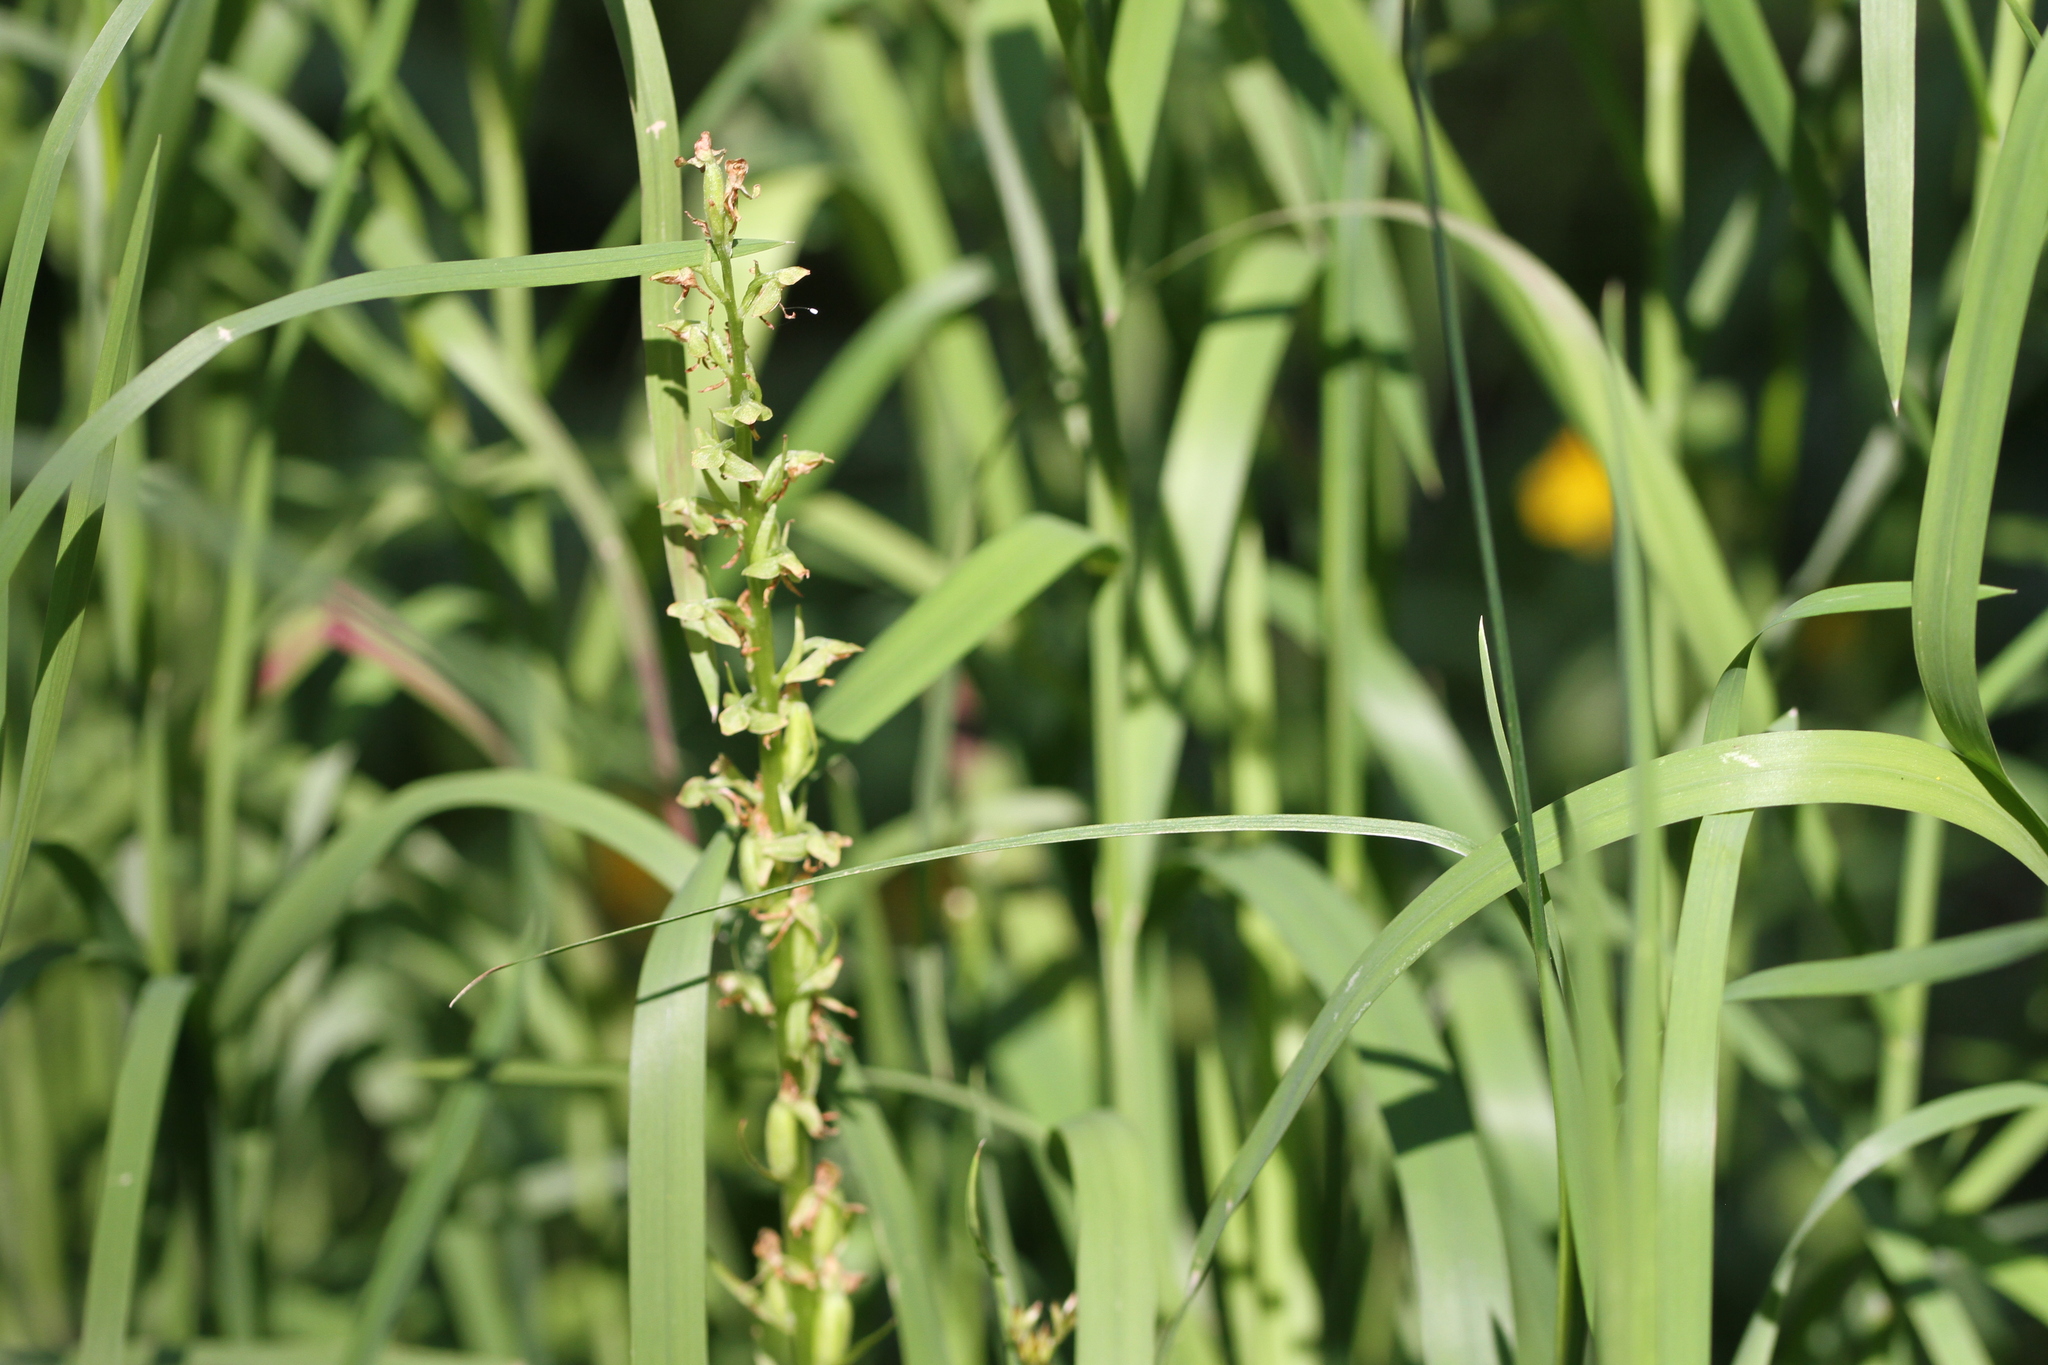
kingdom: Plantae
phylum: Tracheophyta
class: Liliopsida
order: Asparagales
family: Orchidaceae
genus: Platanthera
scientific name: Platanthera sparsiflora
